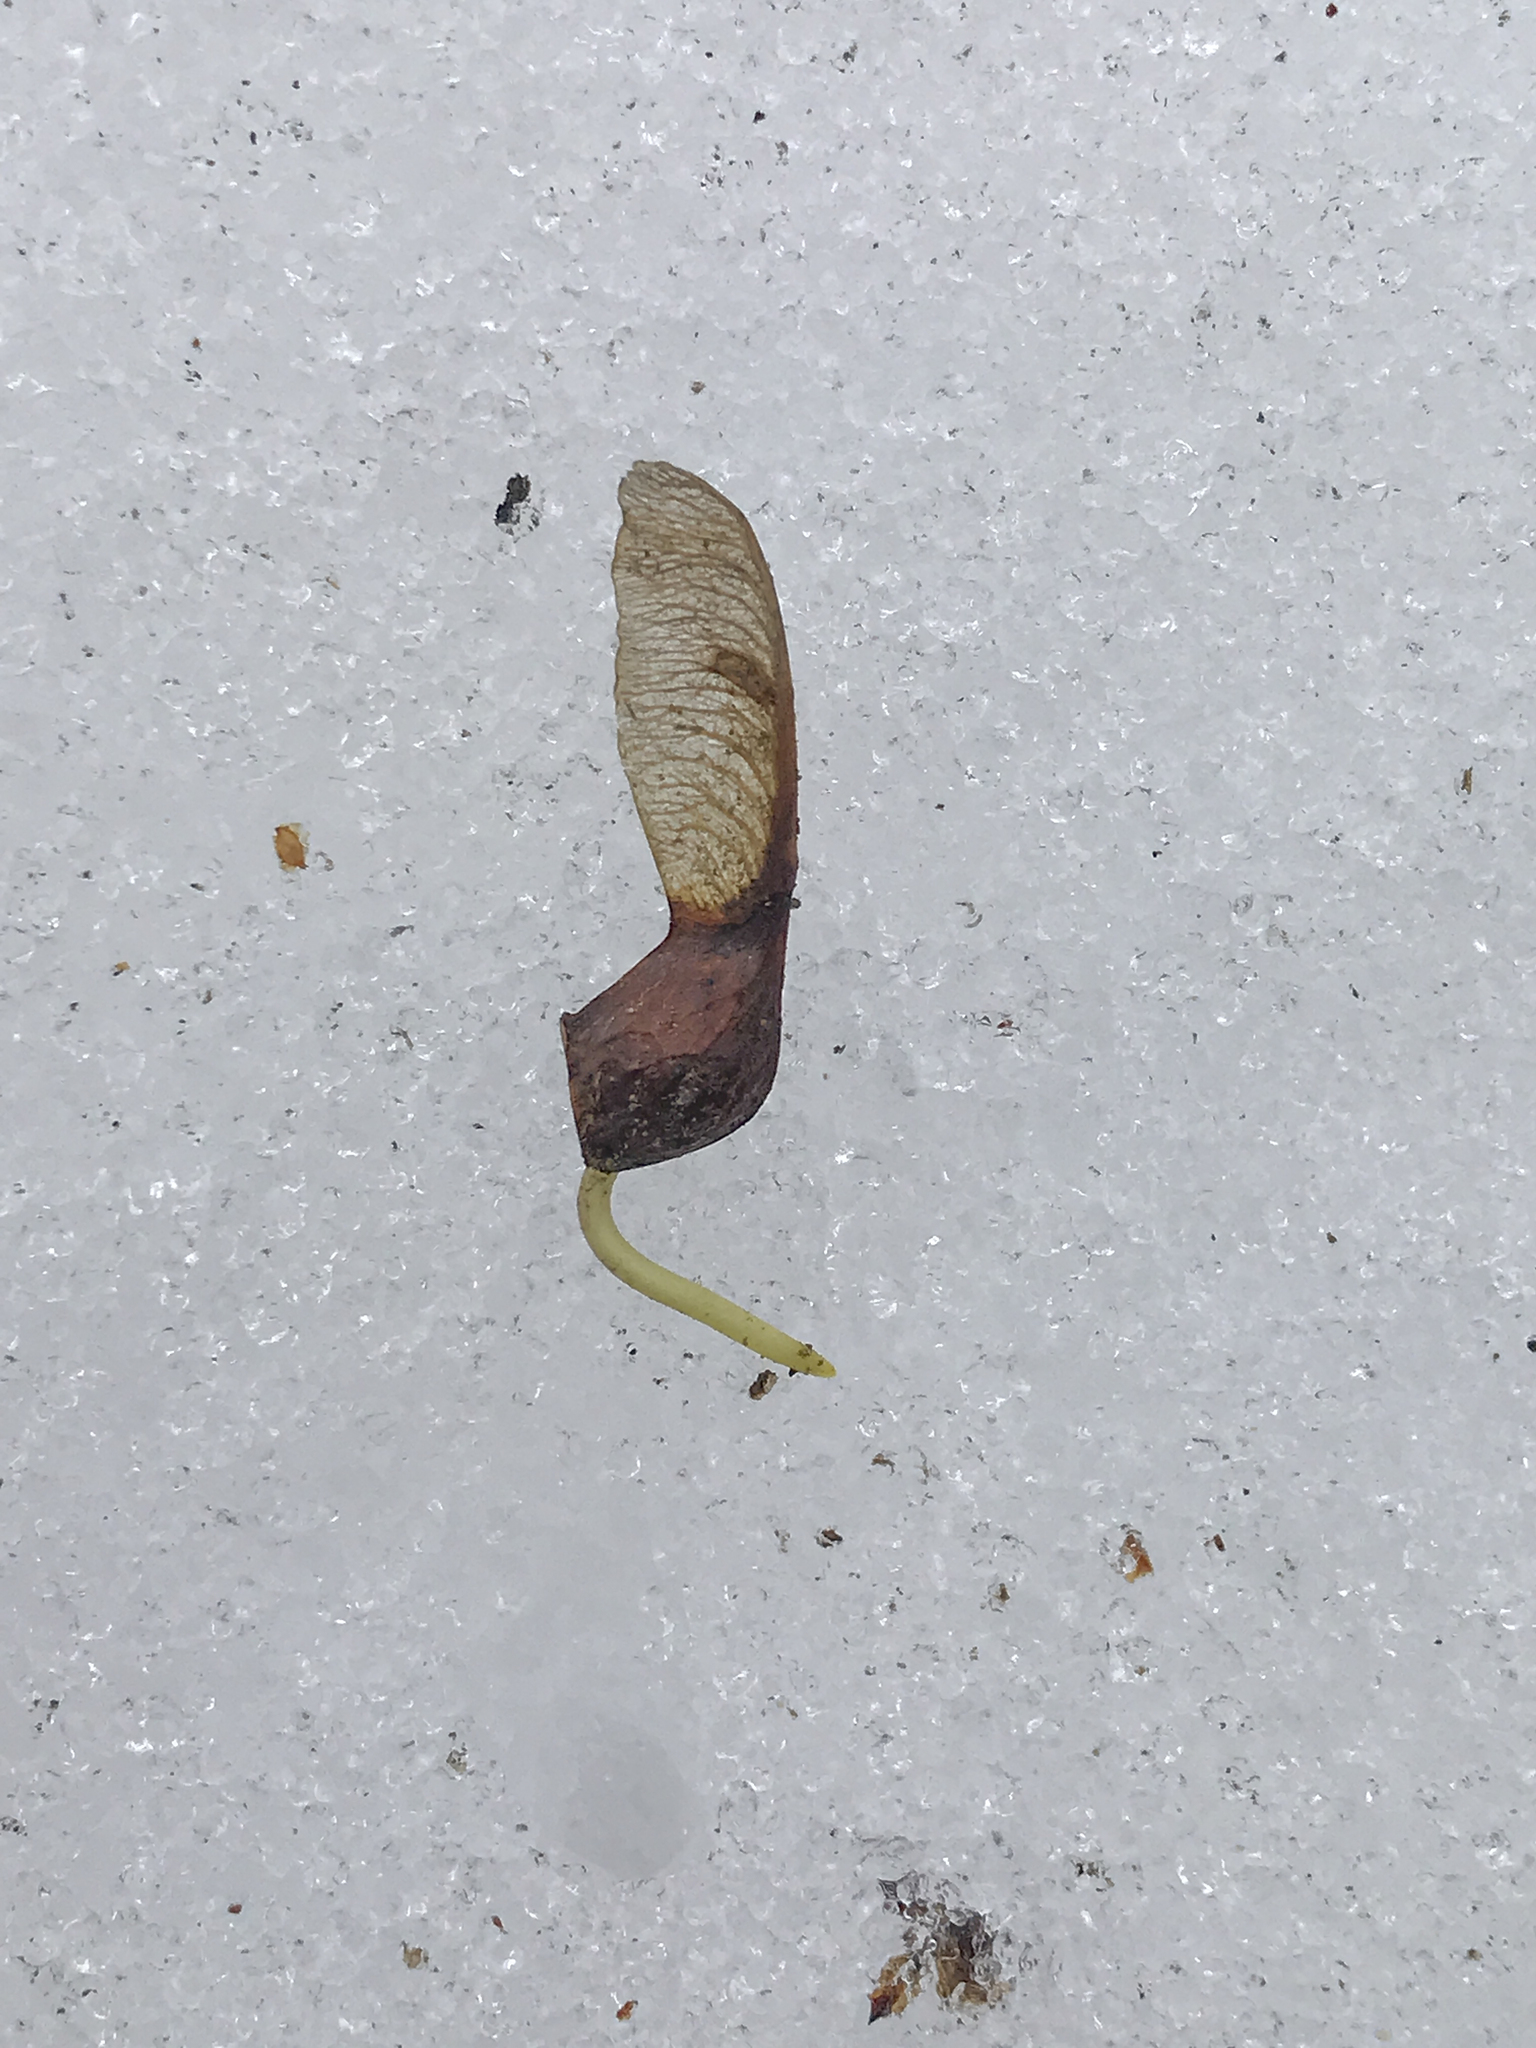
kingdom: Plantae
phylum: Tracheophyta
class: Magnoliopsida
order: Sapindales
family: Sapindaceae
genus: Acer
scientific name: Acer saccharum
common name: Sugar maple
